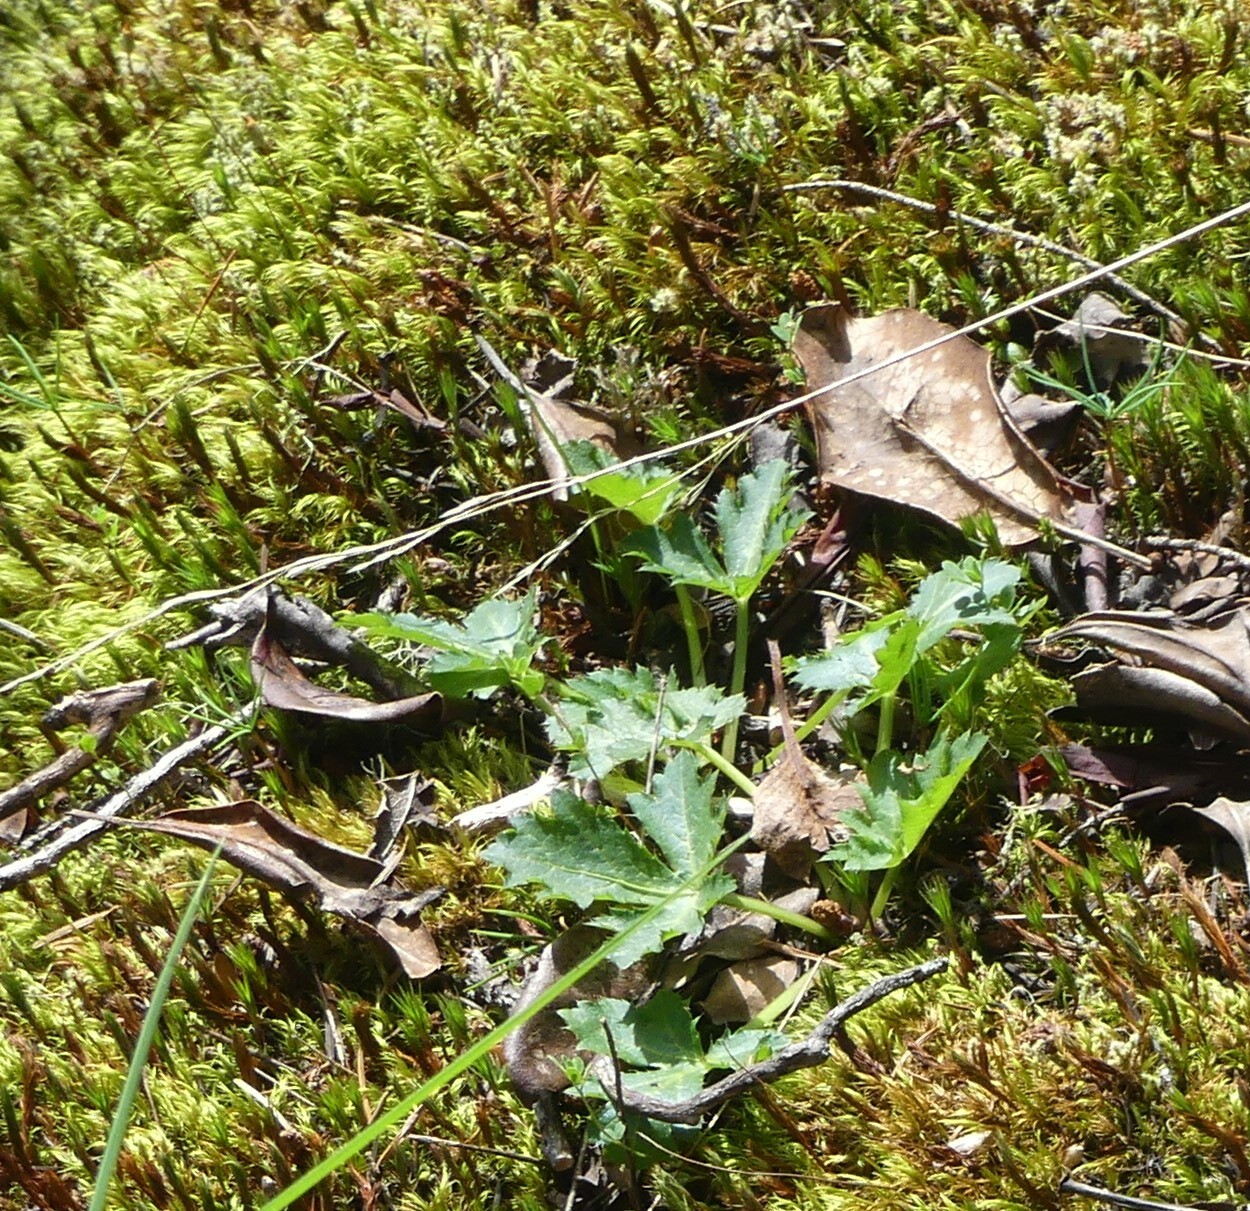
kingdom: Plantae
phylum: Tracheophyta
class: Magnoliopsida
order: Apiales
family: Apiaceae
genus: Sanicula
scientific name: Sanicula crassicaulis
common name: Western snakeroot
